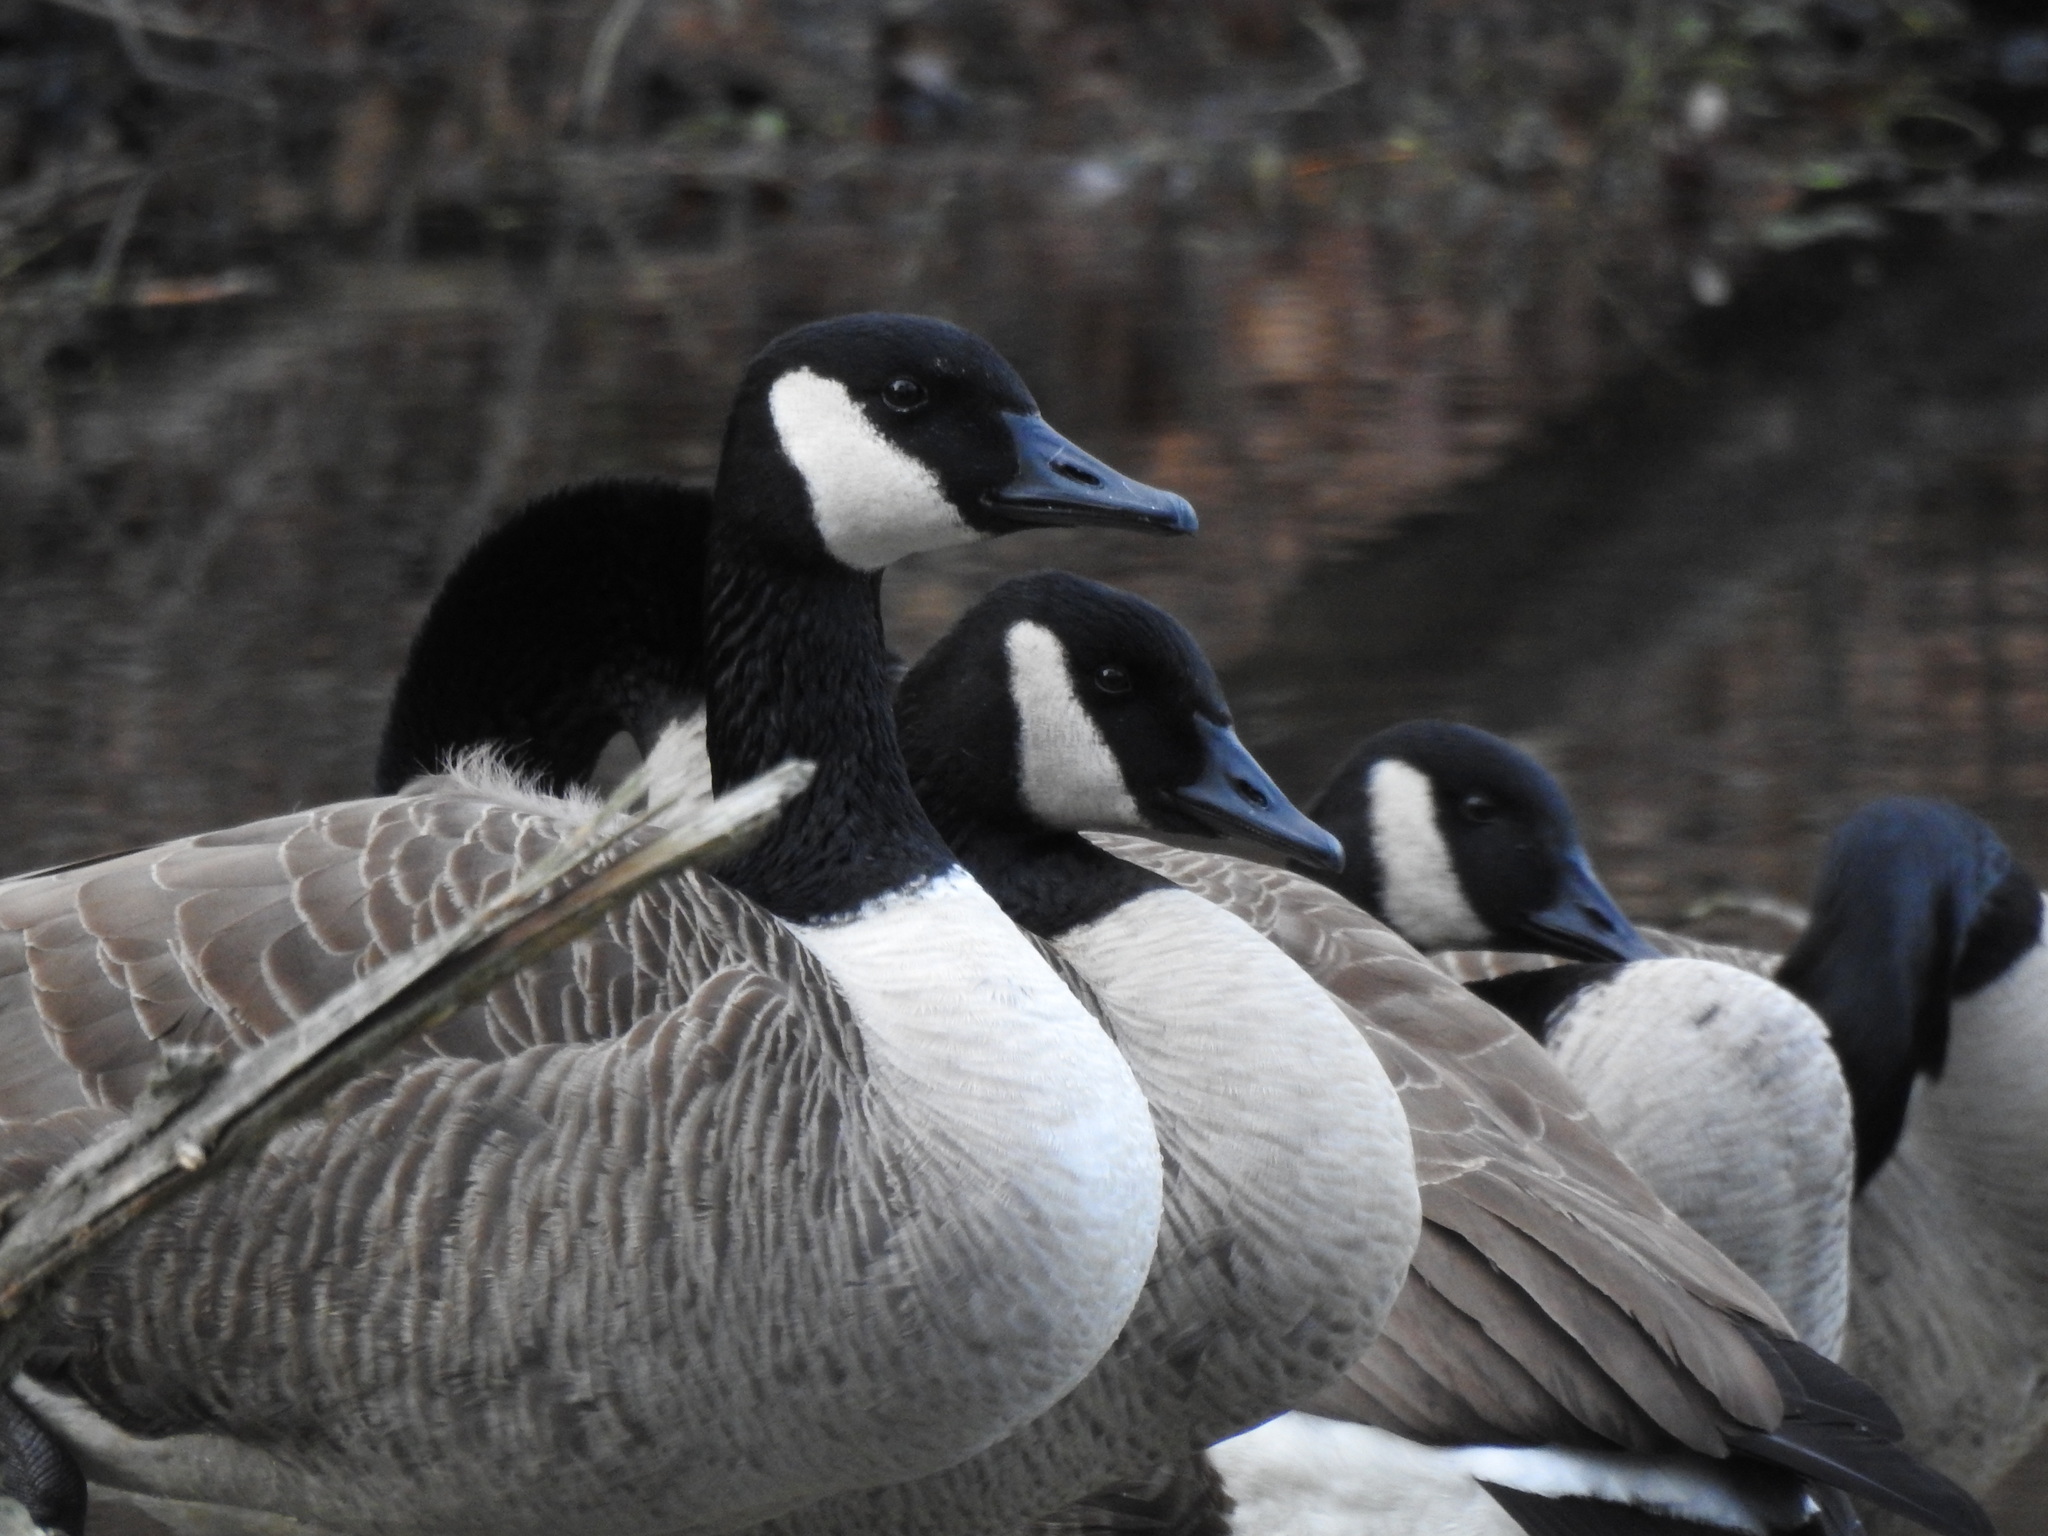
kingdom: Animalia
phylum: Chordata
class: Aves
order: Anseriformes
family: Anatidae
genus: Branta
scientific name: Branta canadensis
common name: Canada goose
